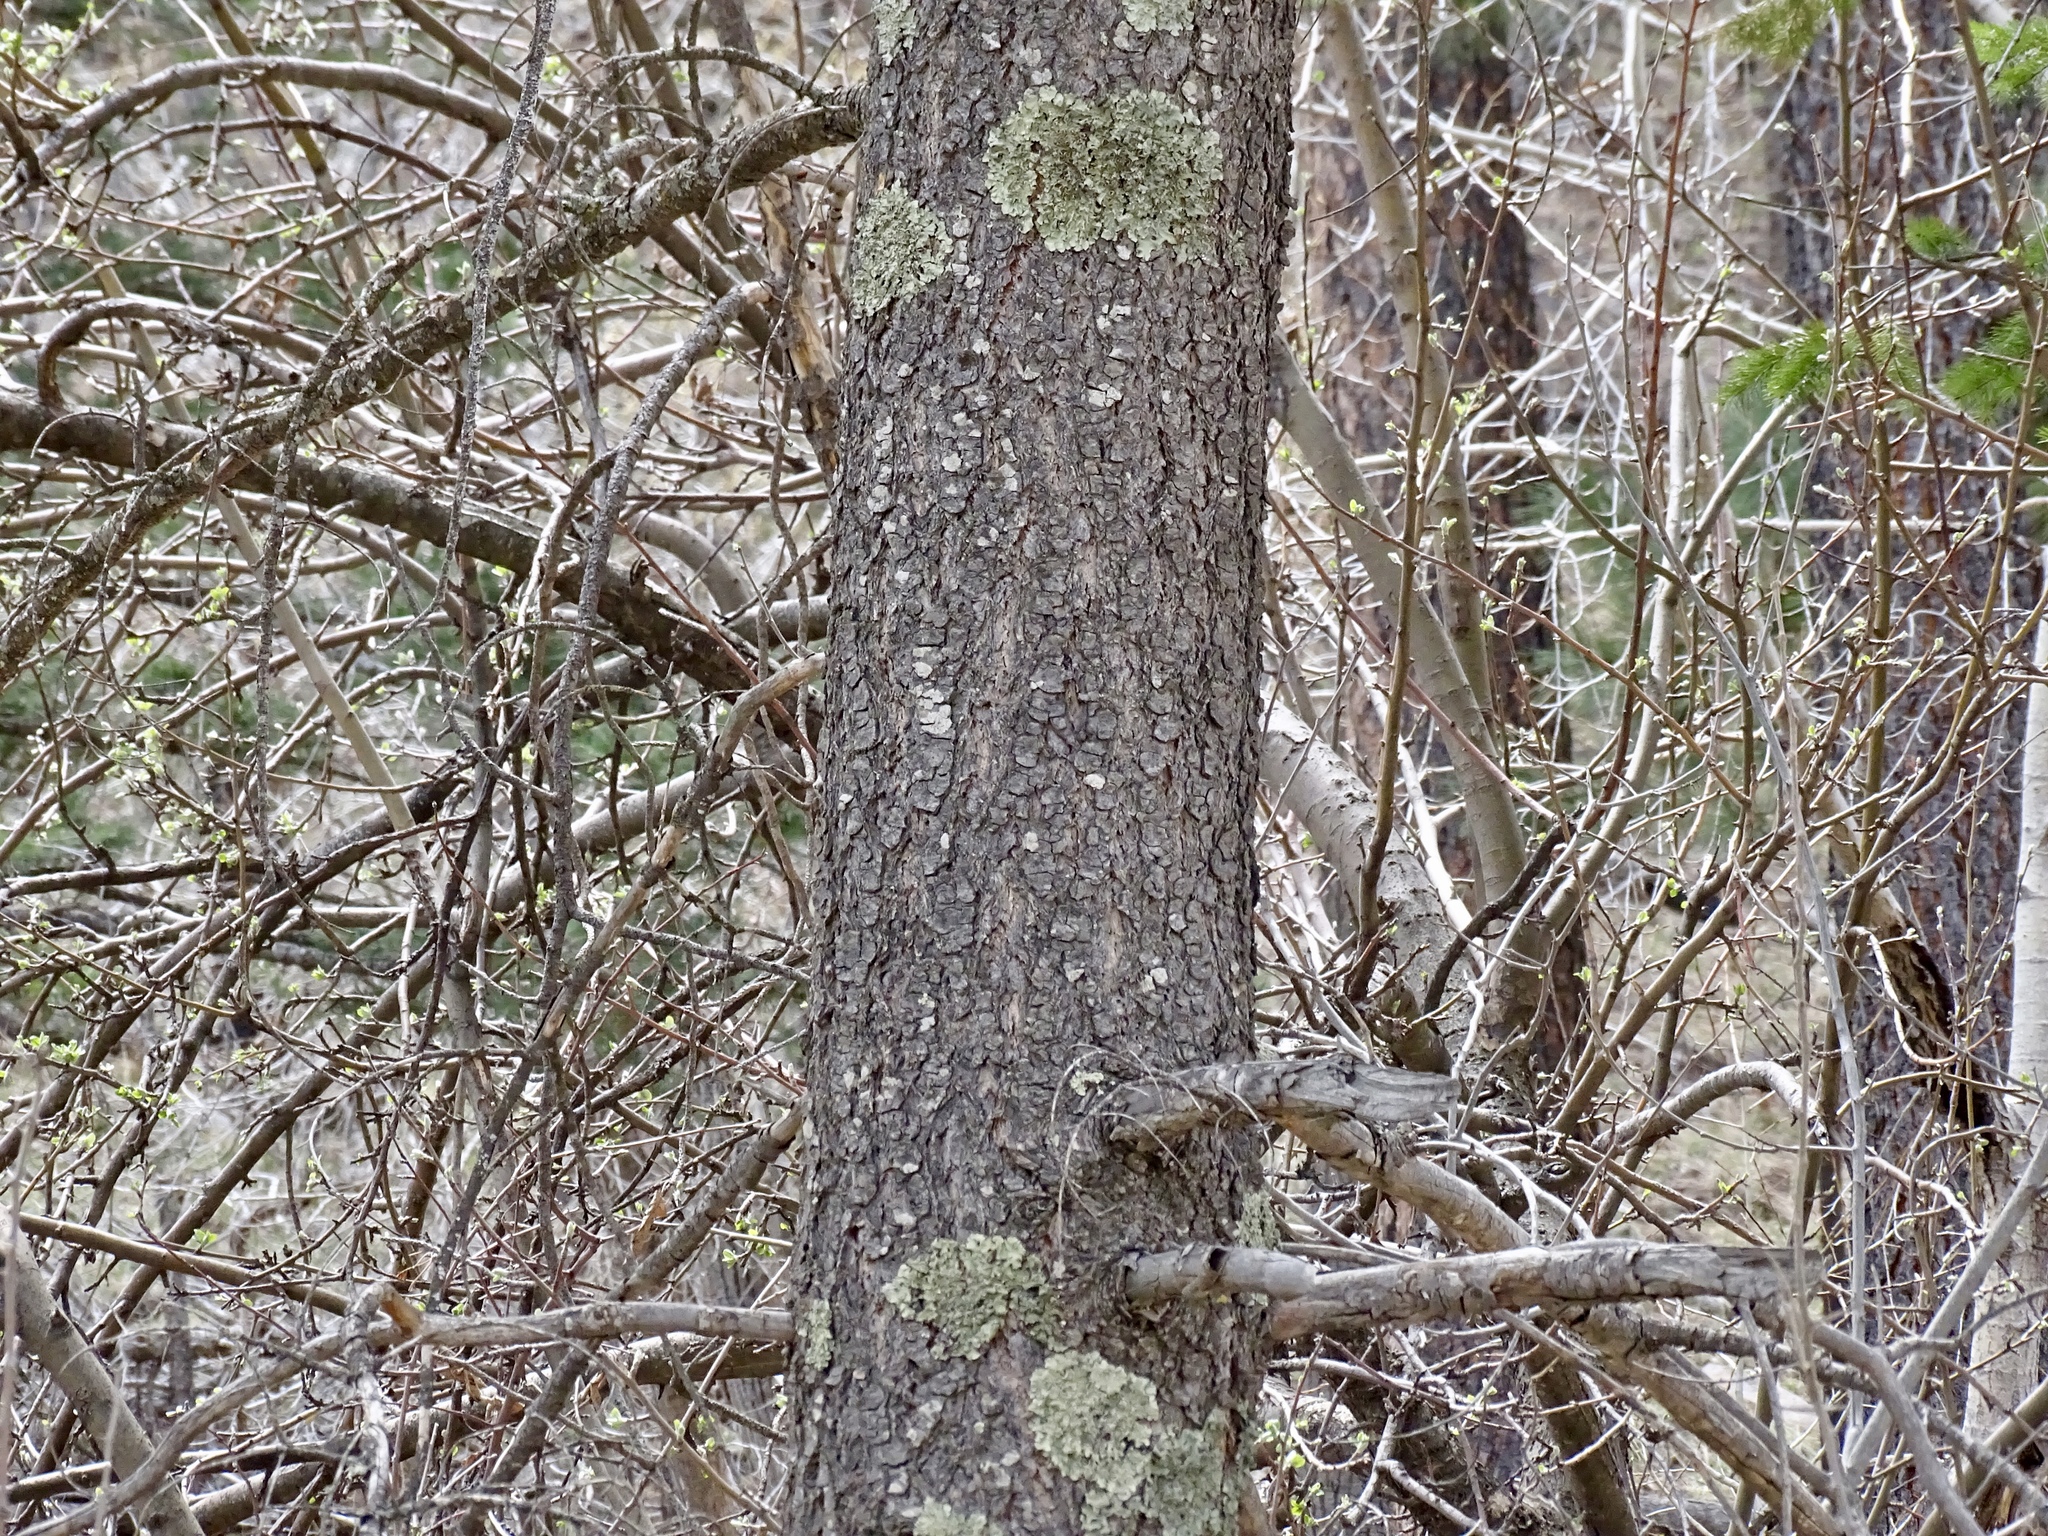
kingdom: Plantae
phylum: Tracheophyta
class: Pinopsida
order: Pinales
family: Pinaceae
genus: Pseudotsuga
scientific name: Pseudotsuga menziesii
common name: Douglas fir
